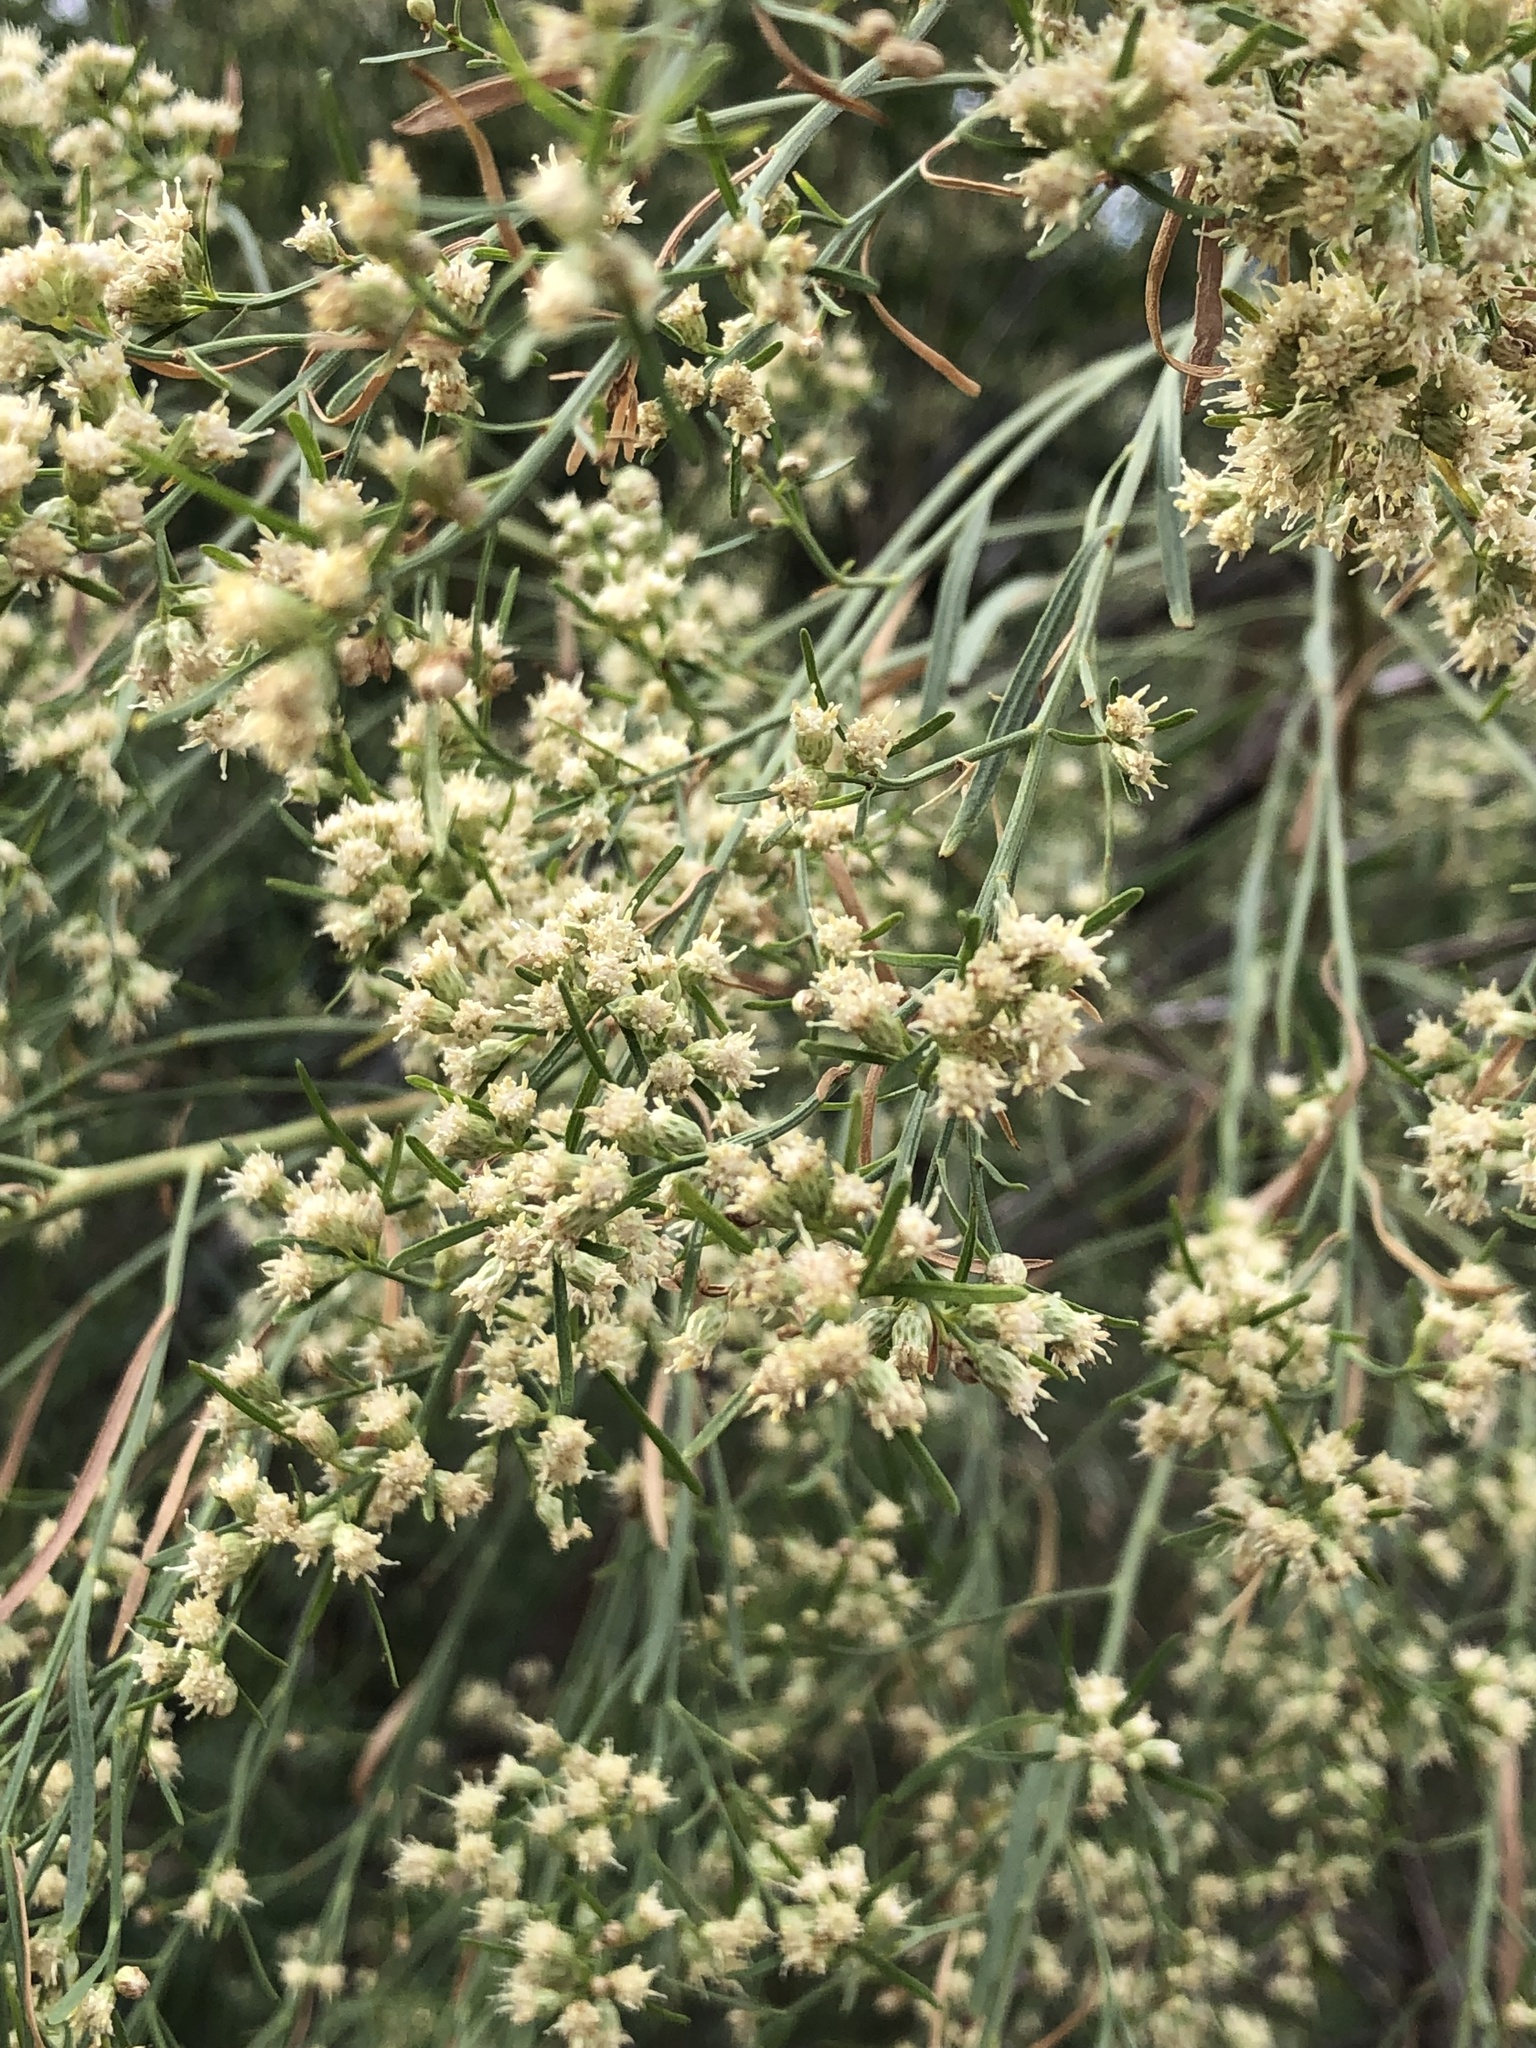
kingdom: Plantae
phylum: Tracheophyta
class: Magnoliopsida
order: Asterales
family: Asteraceae
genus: Baccharis
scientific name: Baccharis neglecta
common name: Roosevelt-weed
